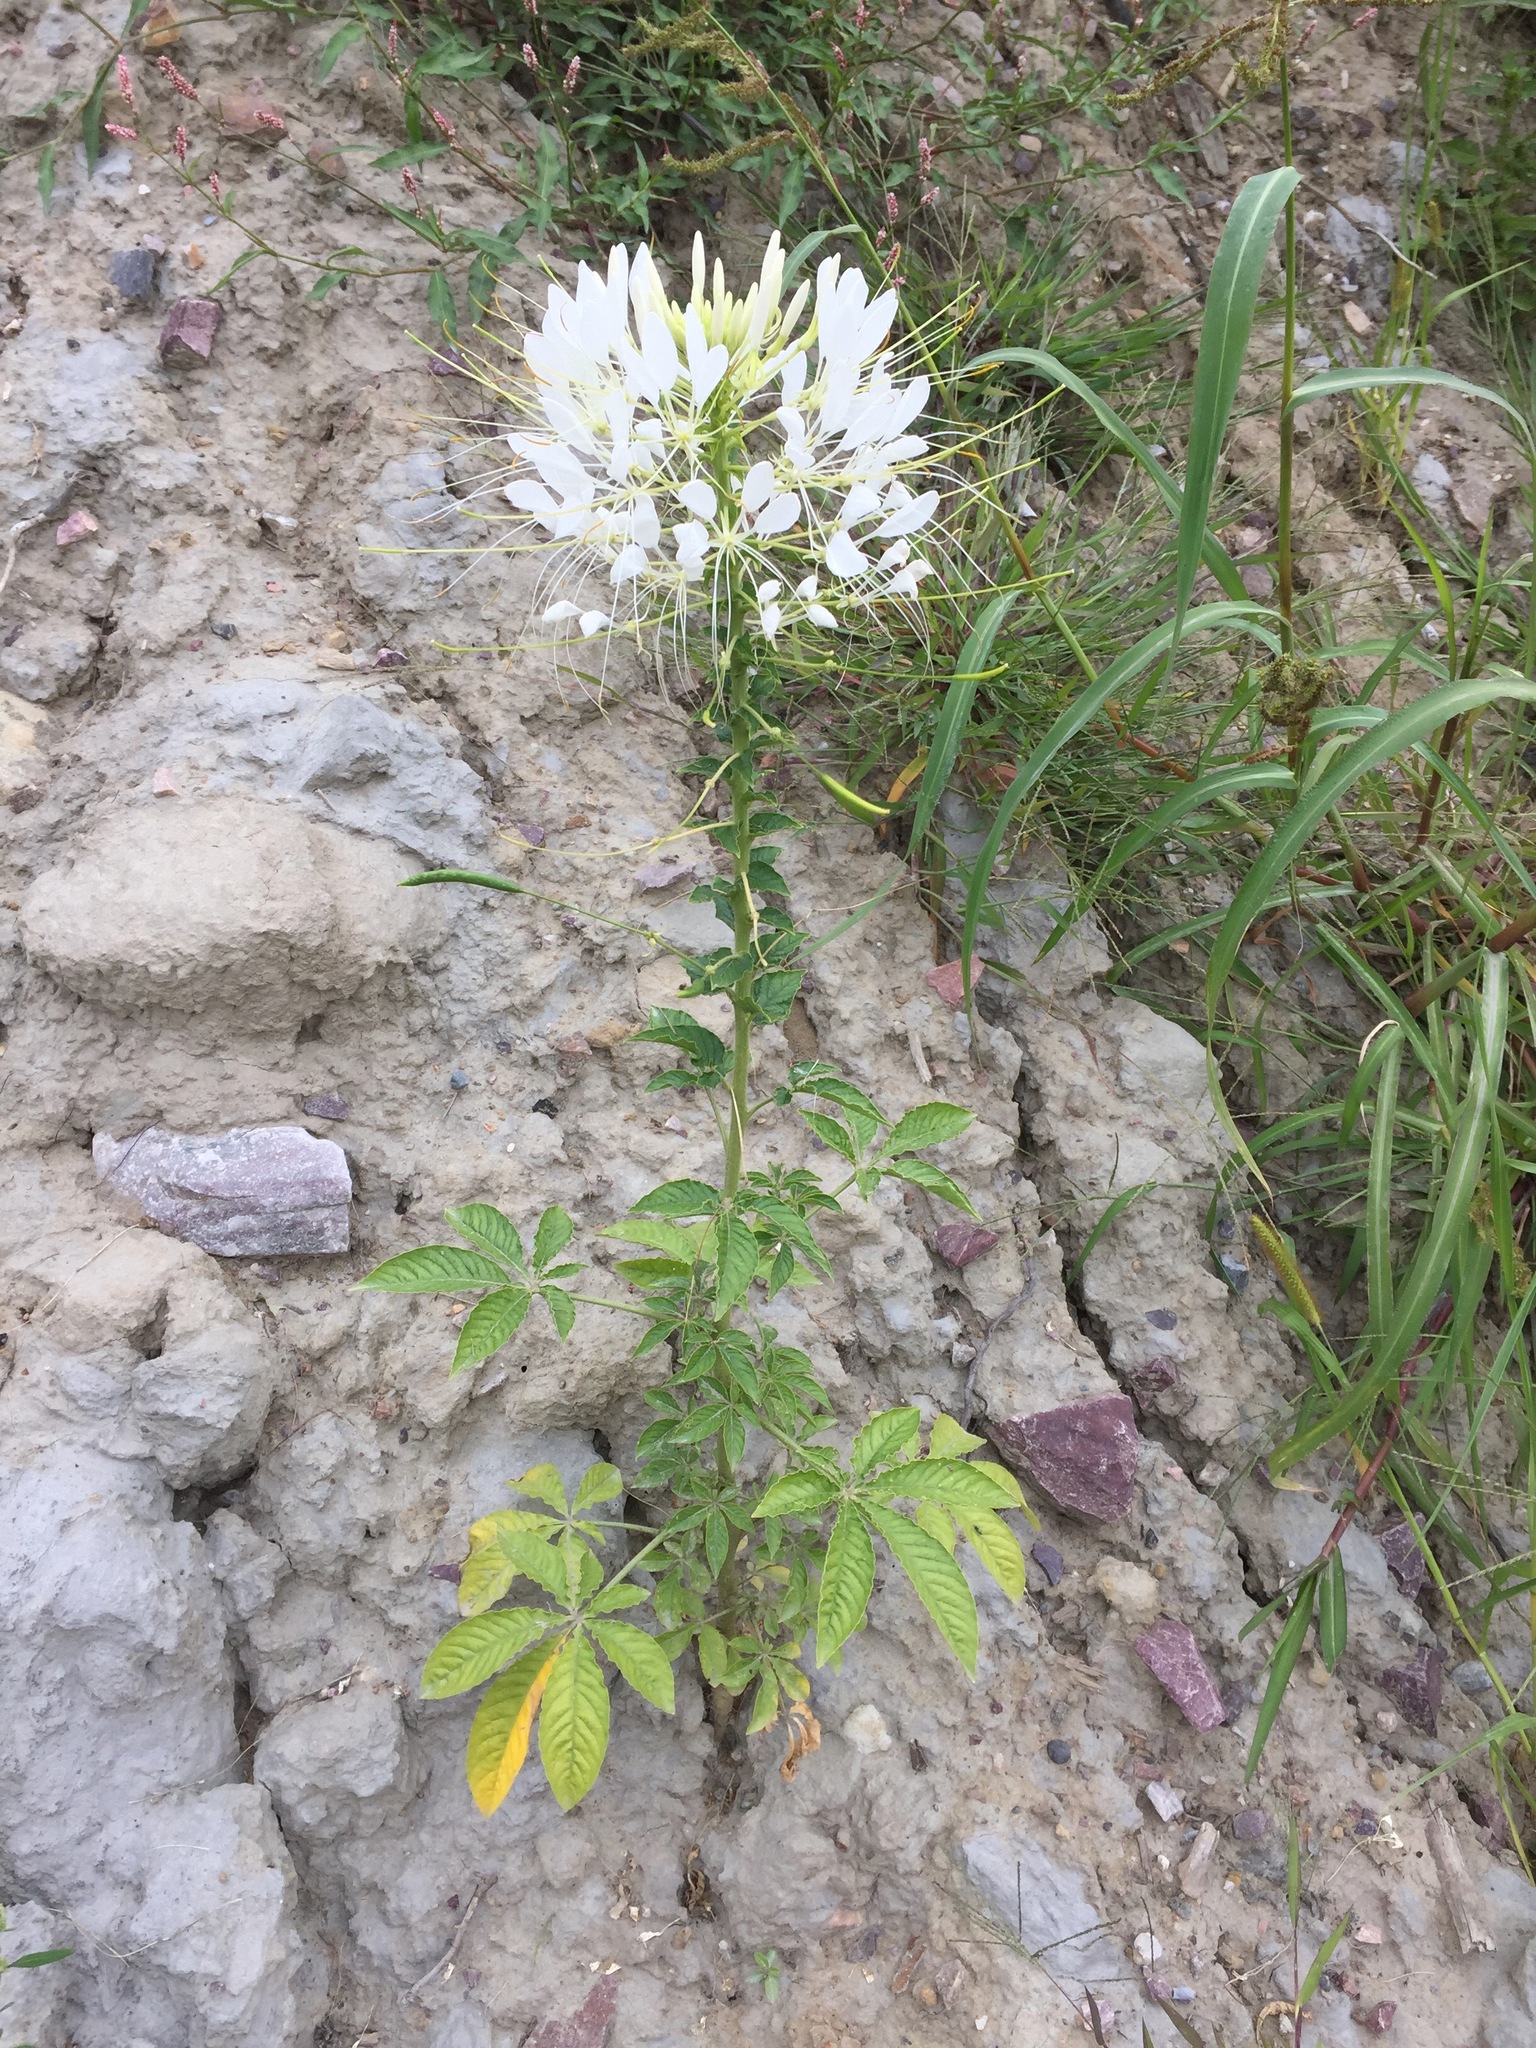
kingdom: Plantae
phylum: Tracheophyta
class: Magnoliopsida
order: Brassicales
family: Cleomaceae
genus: Tarenaya
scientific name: Tarenaya houtteana
